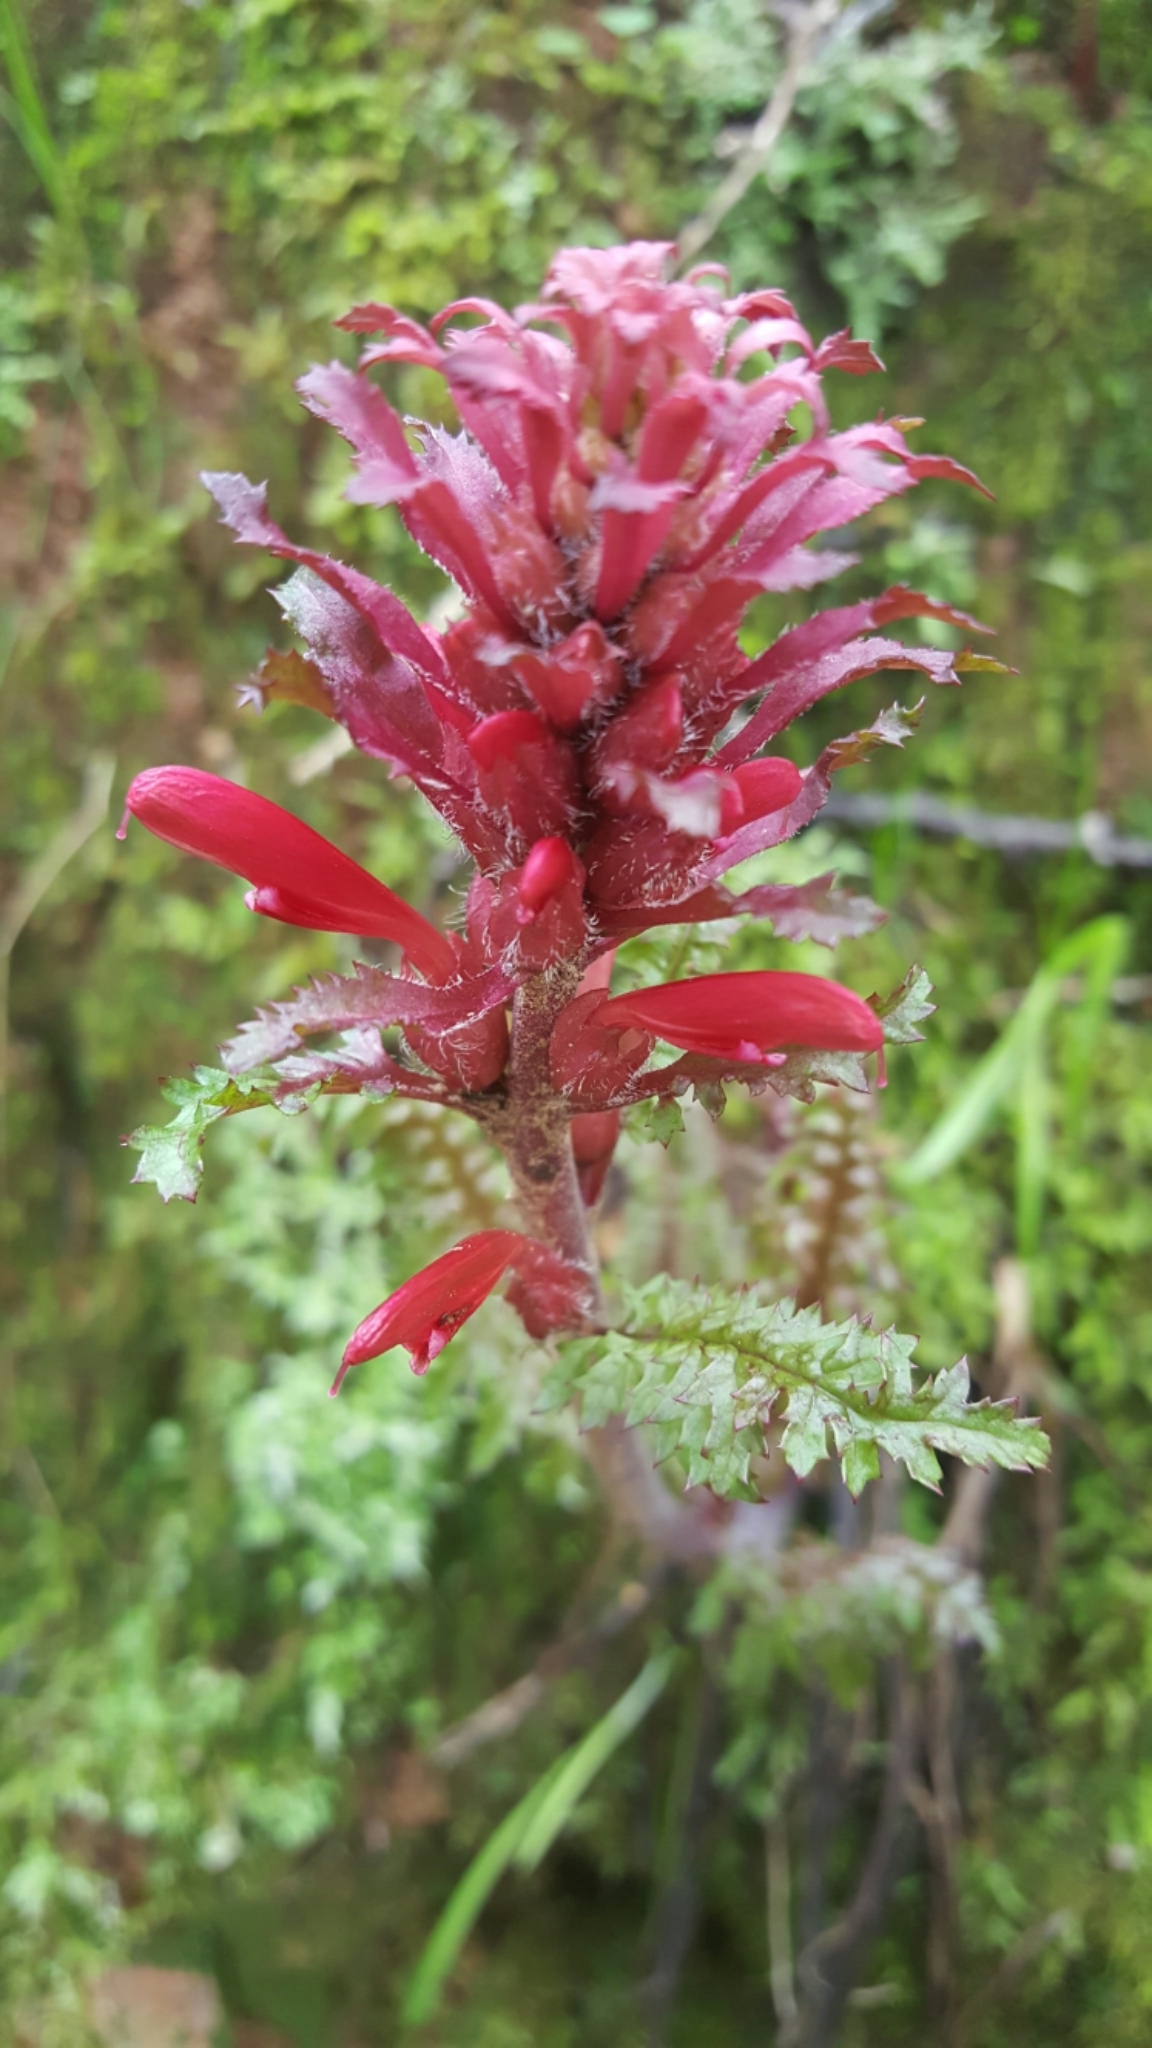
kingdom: Plantae
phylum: Tracheophyta
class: Magnoliopsida
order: Lamiales
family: Orobanchaceae
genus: Pedicularis
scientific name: Pedicularis densiflora
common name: Indian warrior
